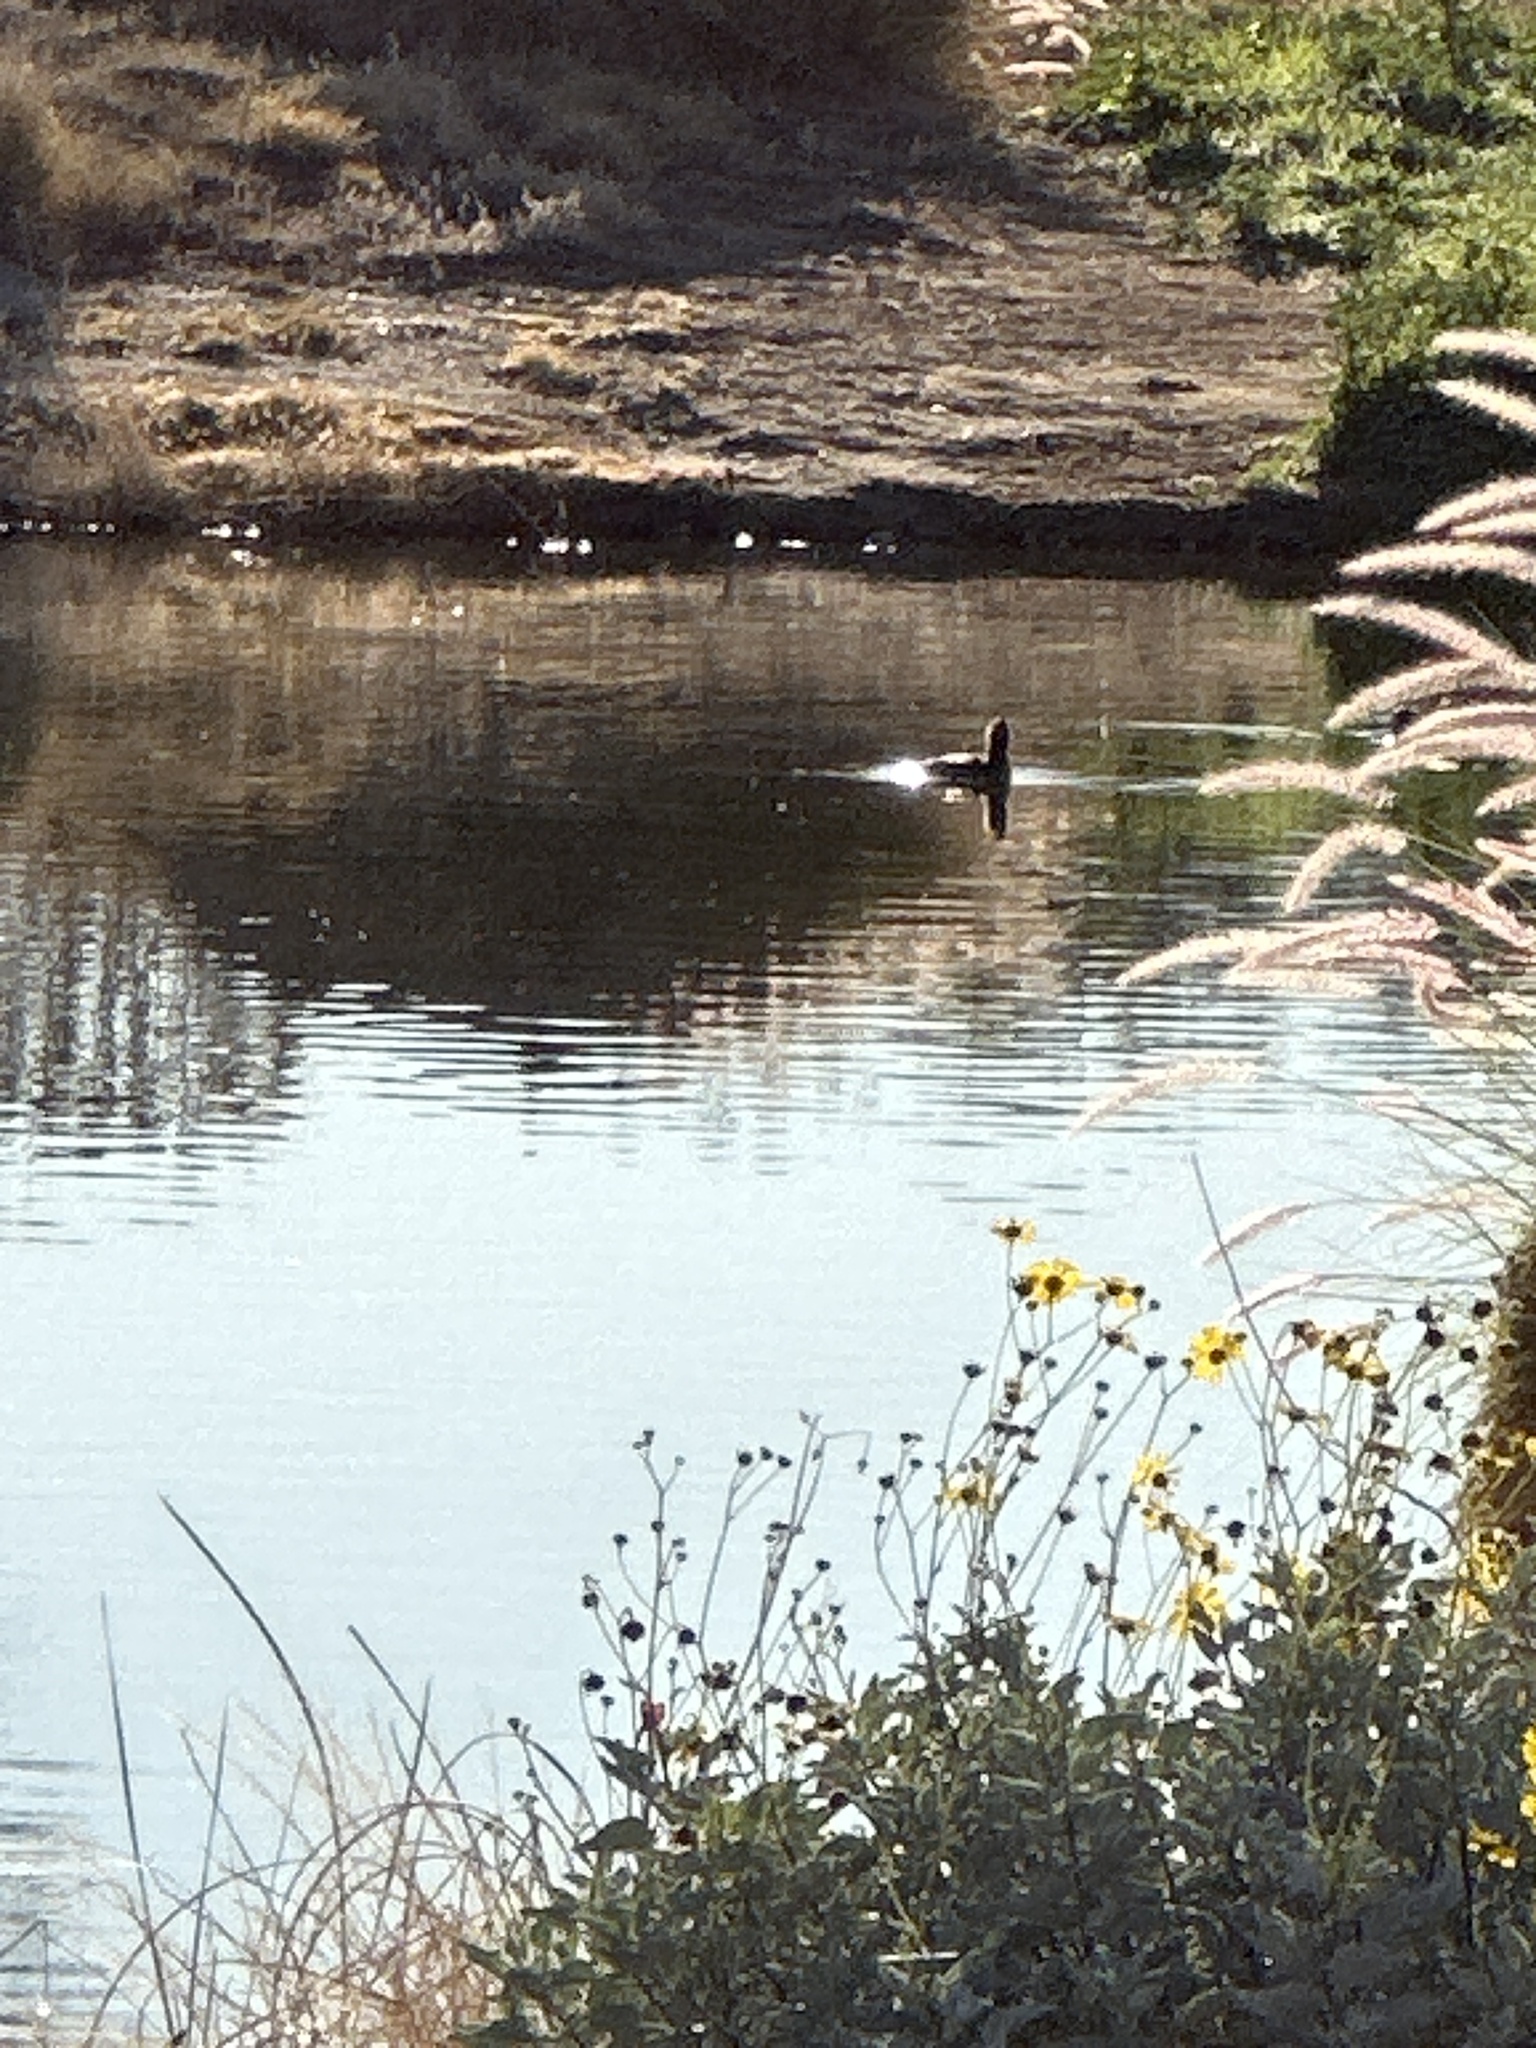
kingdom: Animalia
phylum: Chordata
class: Aves
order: Anseriformes
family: Anatidae
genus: Lophodytes
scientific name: Lophodytes cucullatus
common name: Hooded merganser
